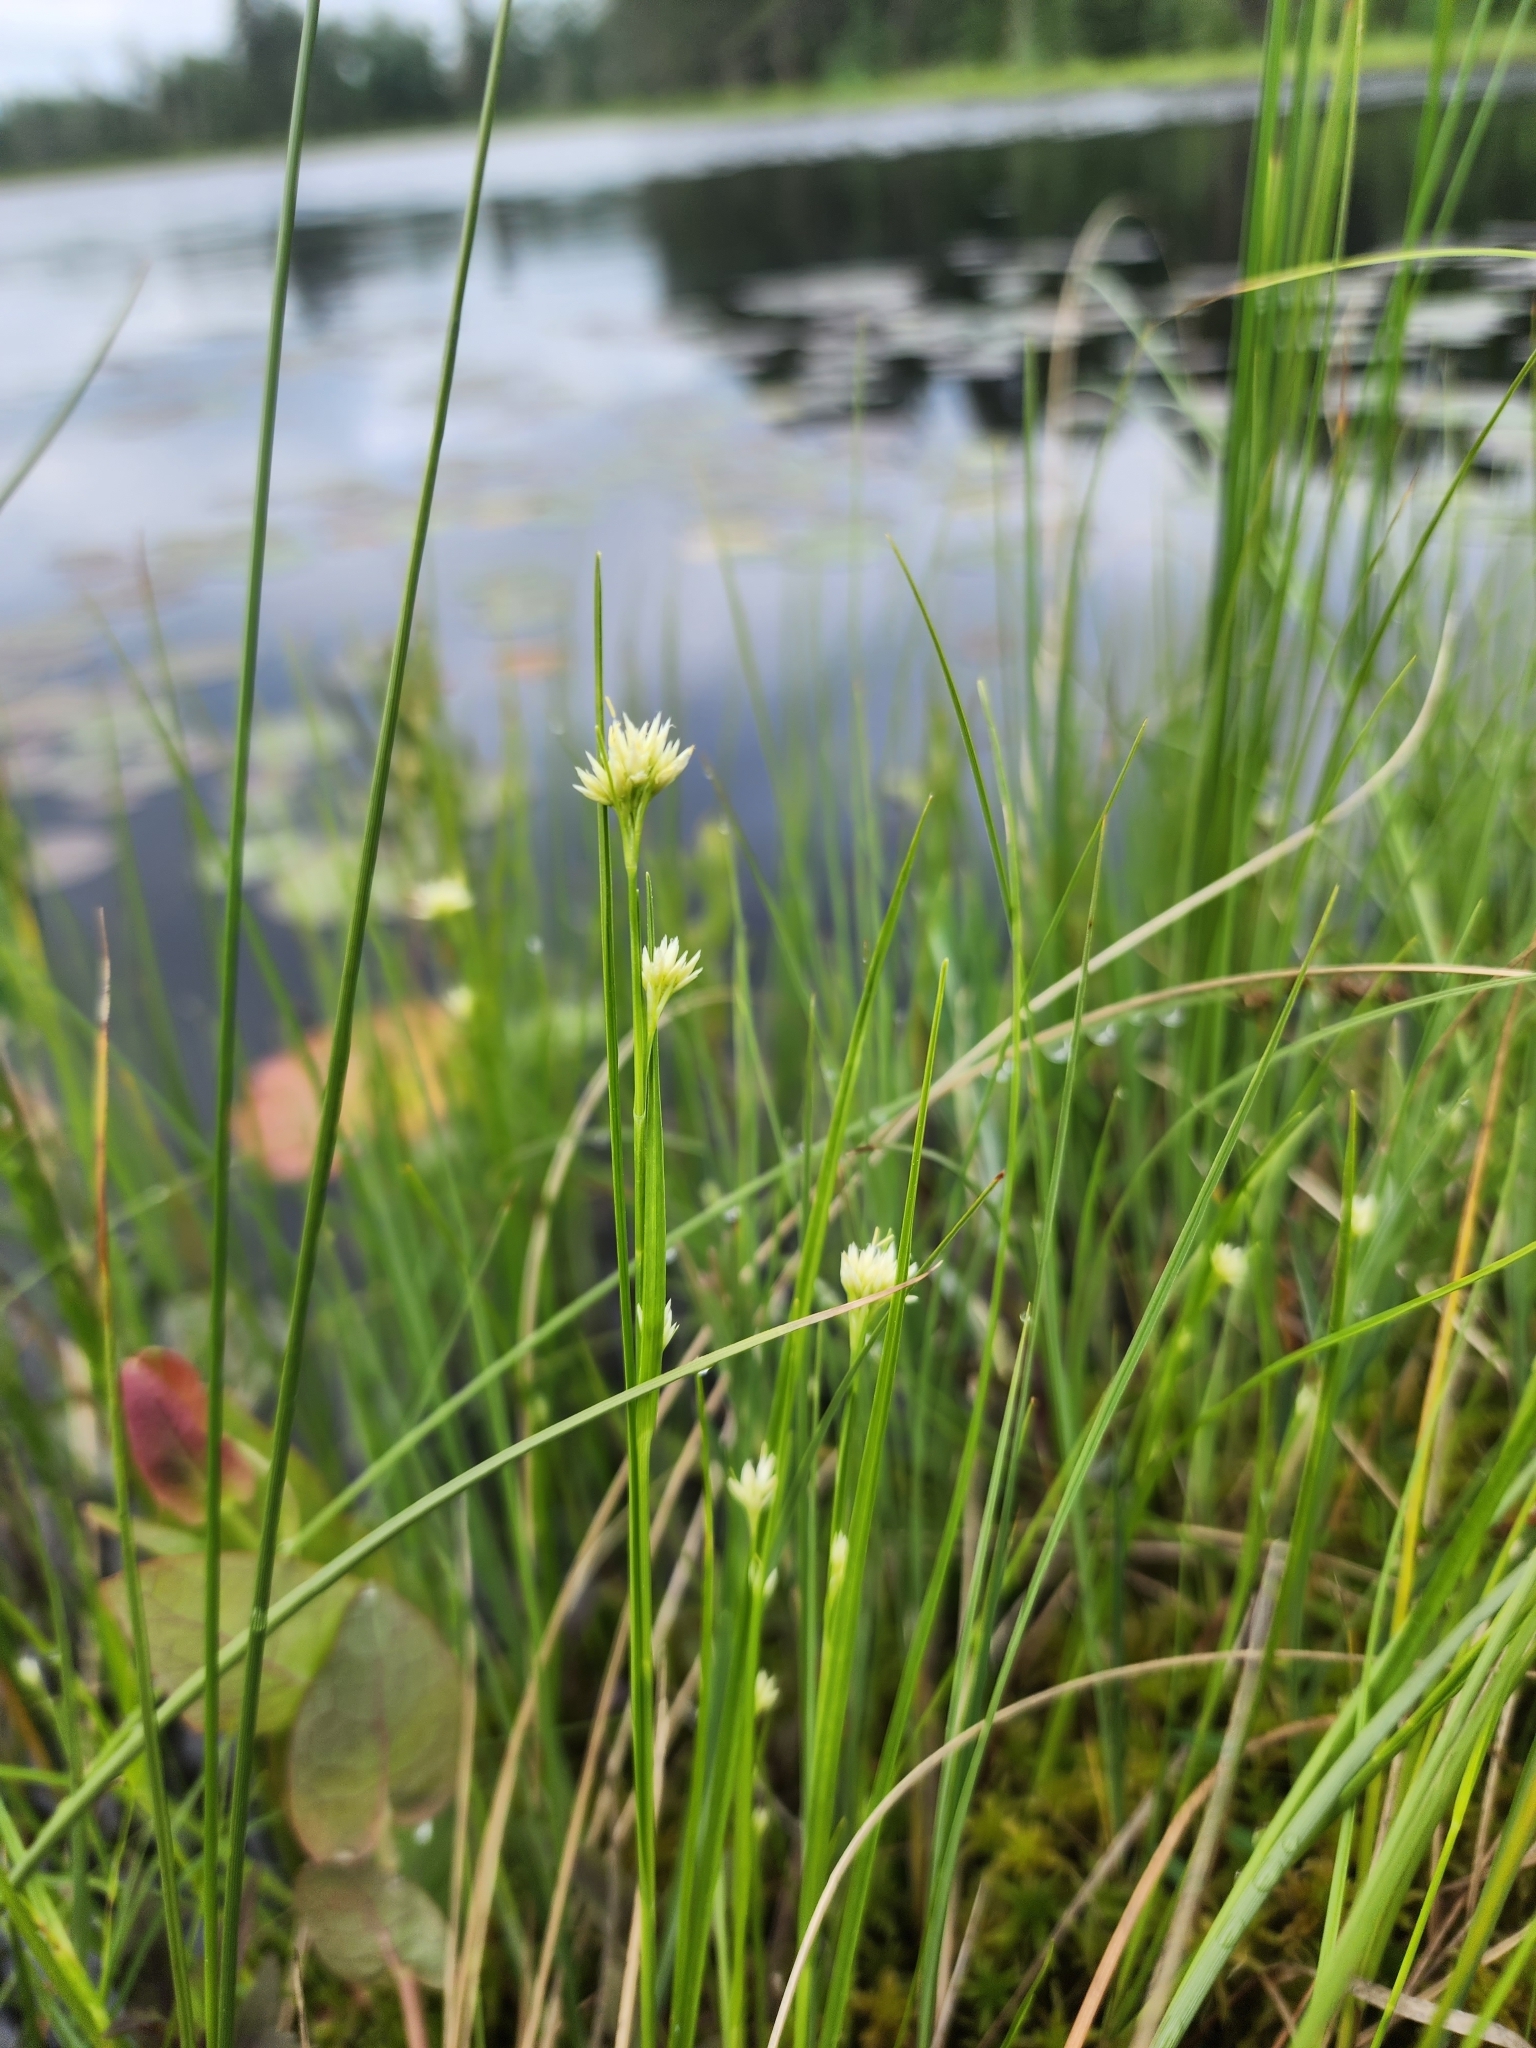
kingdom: Plantae
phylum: Tracheophyta
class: Liliopsida
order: Poales
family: Cyperaceae
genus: Rhynchospora
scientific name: Rhynchospora alba
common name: White beak-sedge
